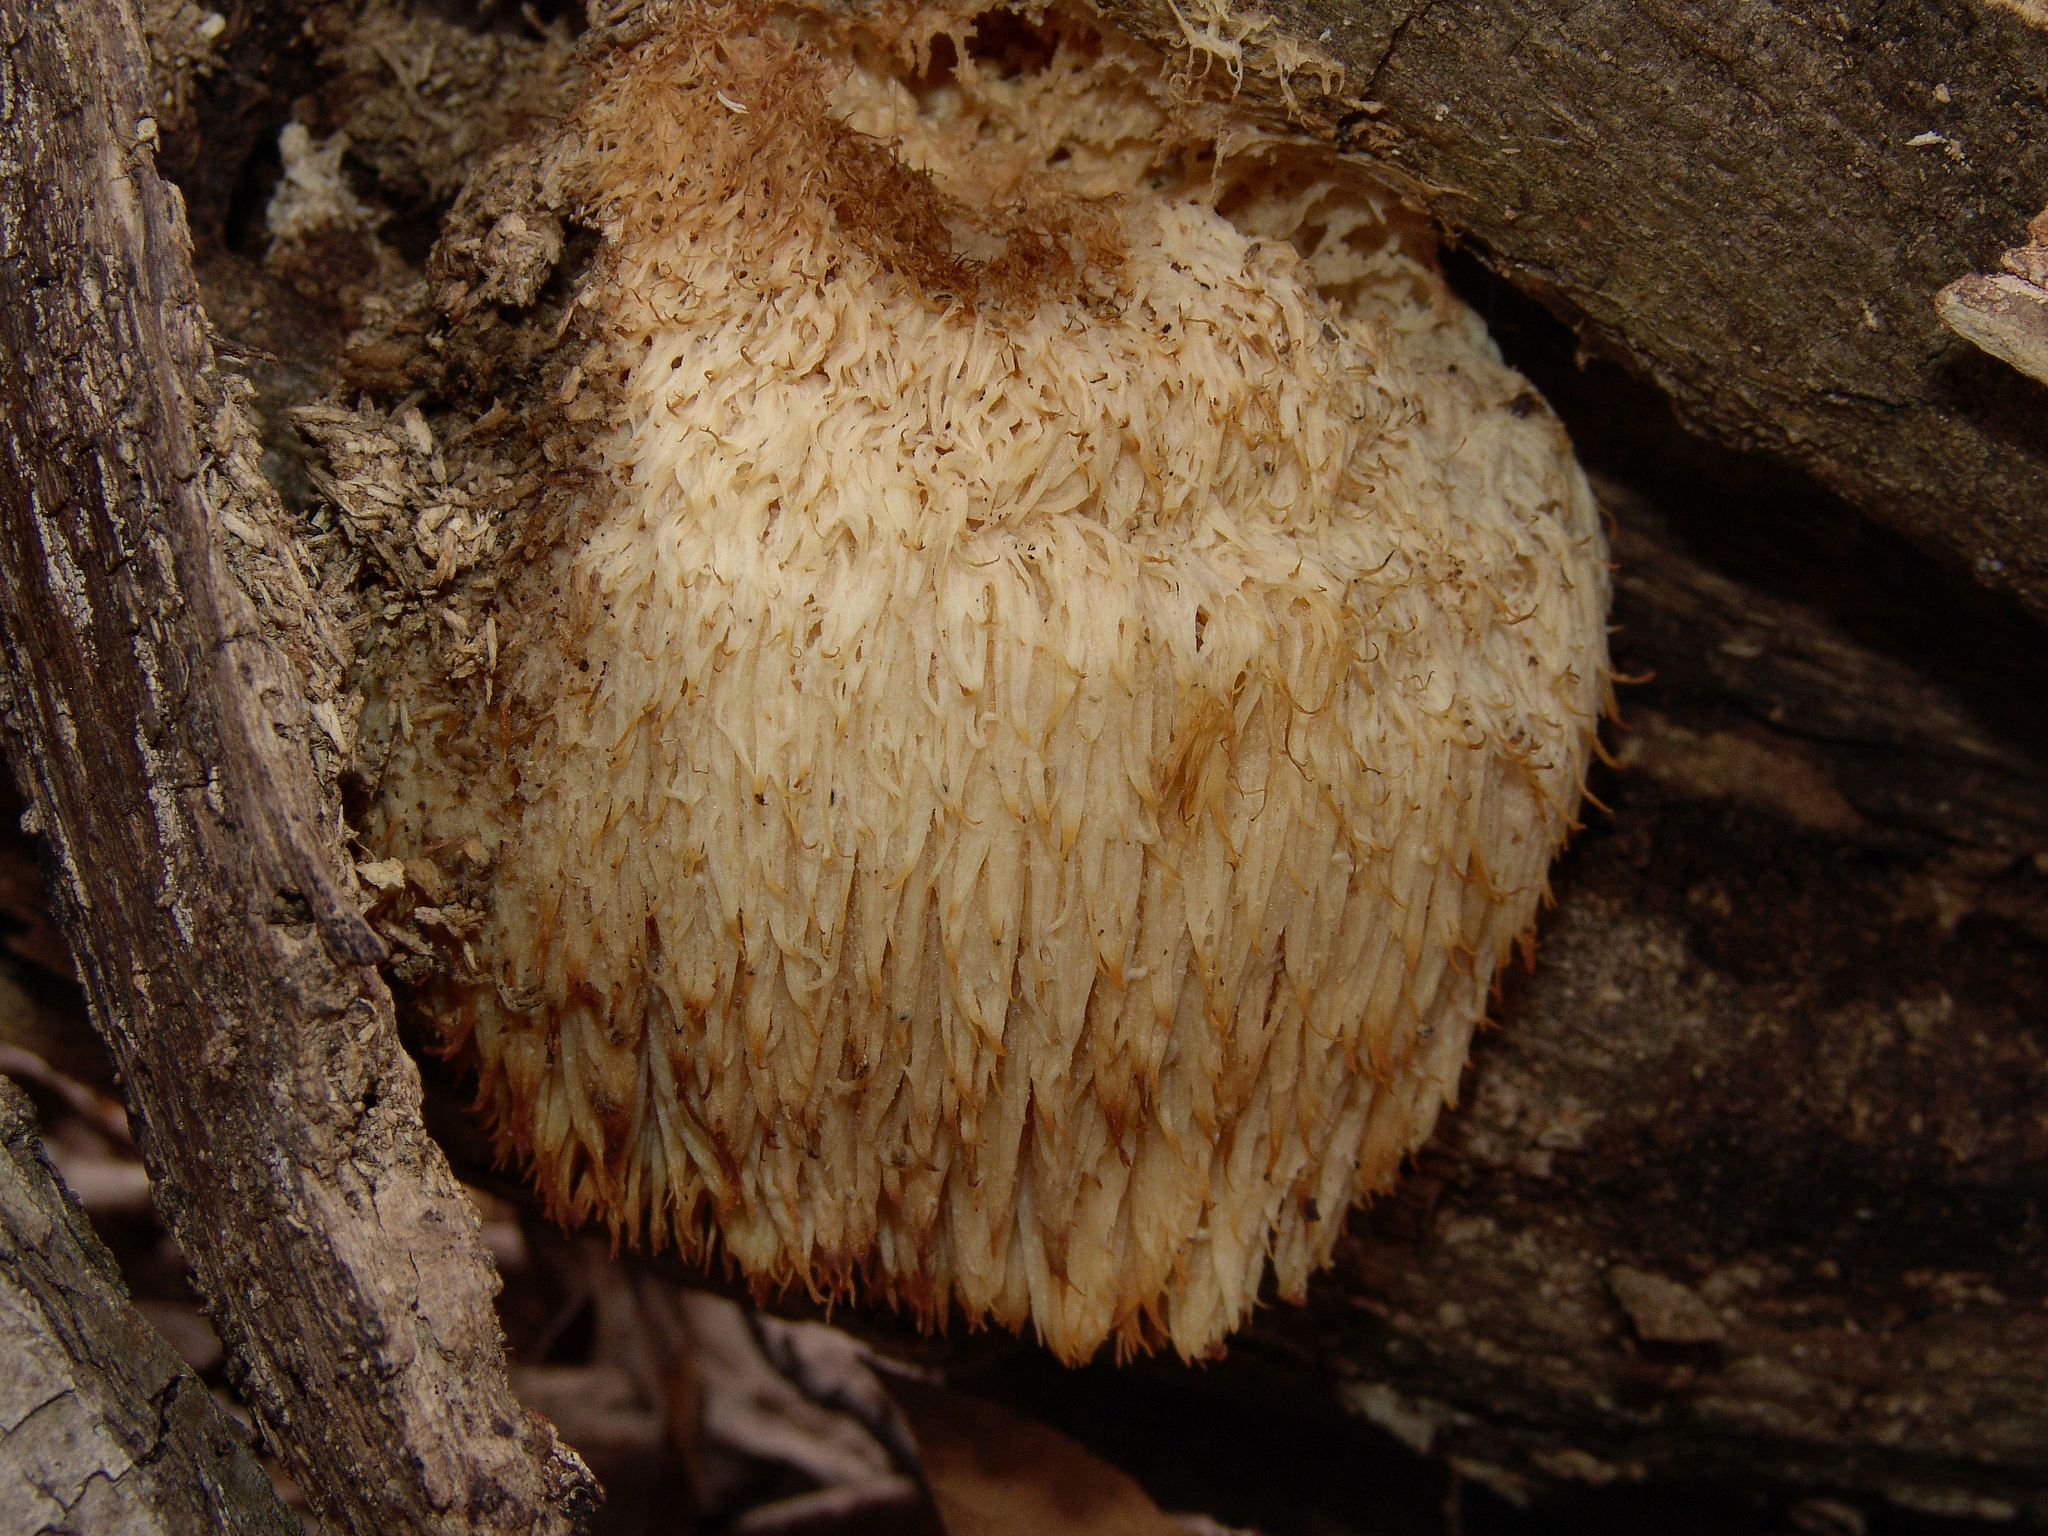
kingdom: Fungi
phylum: Basidiomycota
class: Agaricomycetes
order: Russulales
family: Hericiaceae
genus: Hericium
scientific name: Hericium erinaceus
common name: Bearded tooth
